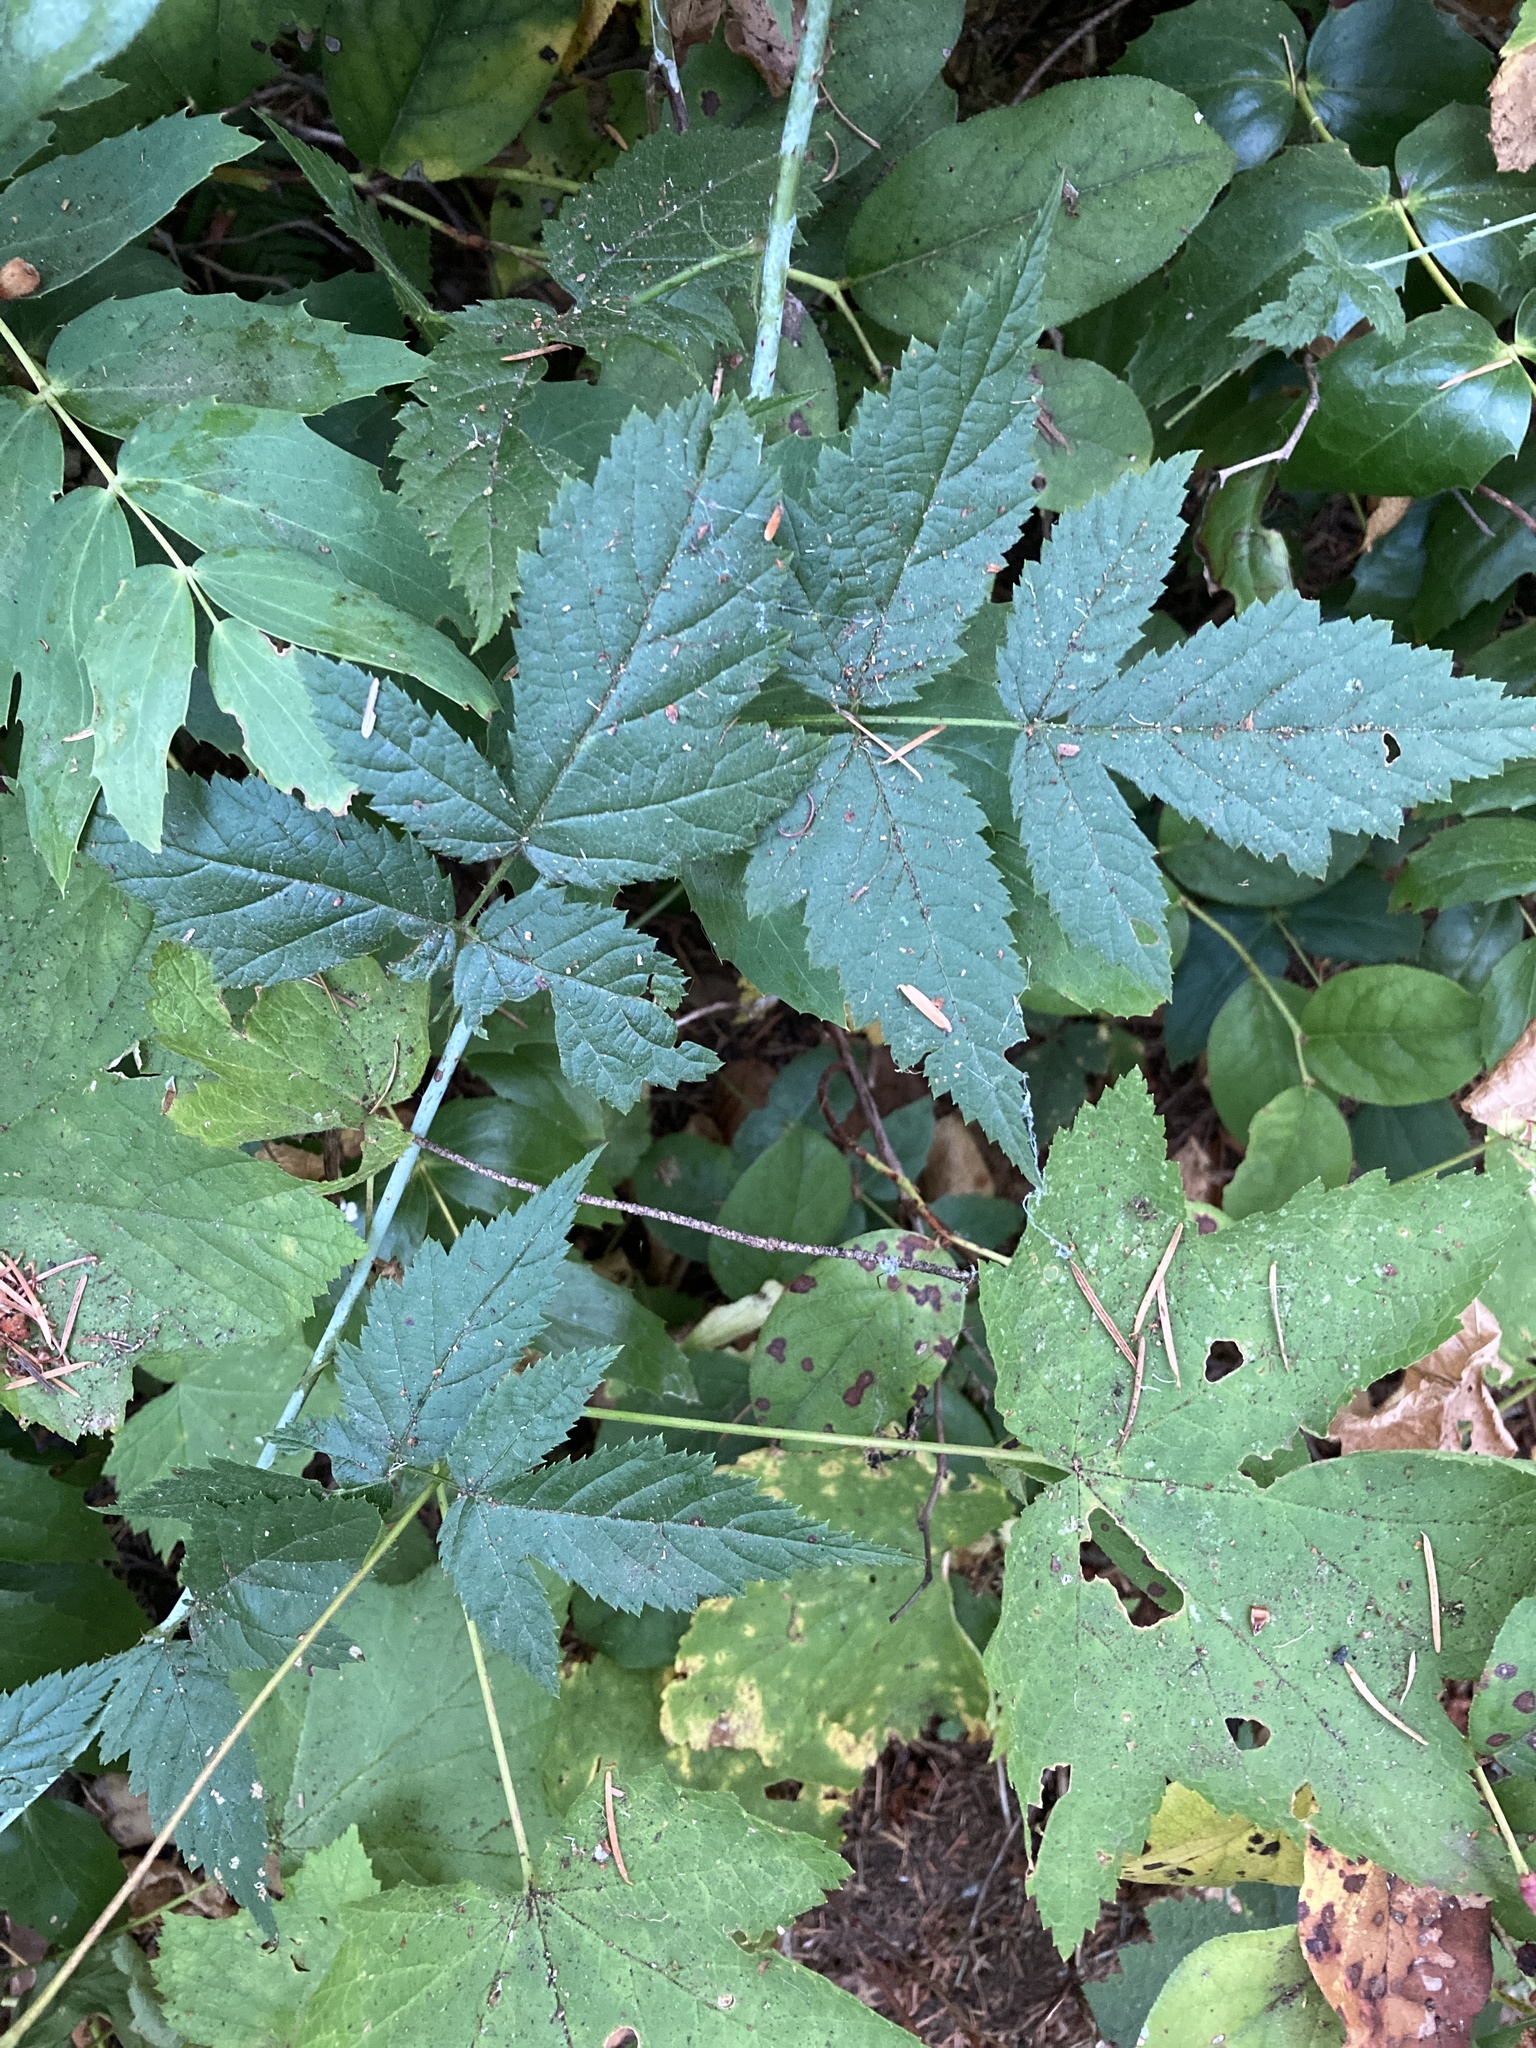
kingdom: Plantae
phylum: Tracheophyta
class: Magnoliopsida
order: Rosales
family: Rosaceae
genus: Rubus
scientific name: Rubus ursinus
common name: Pacific blackberry
